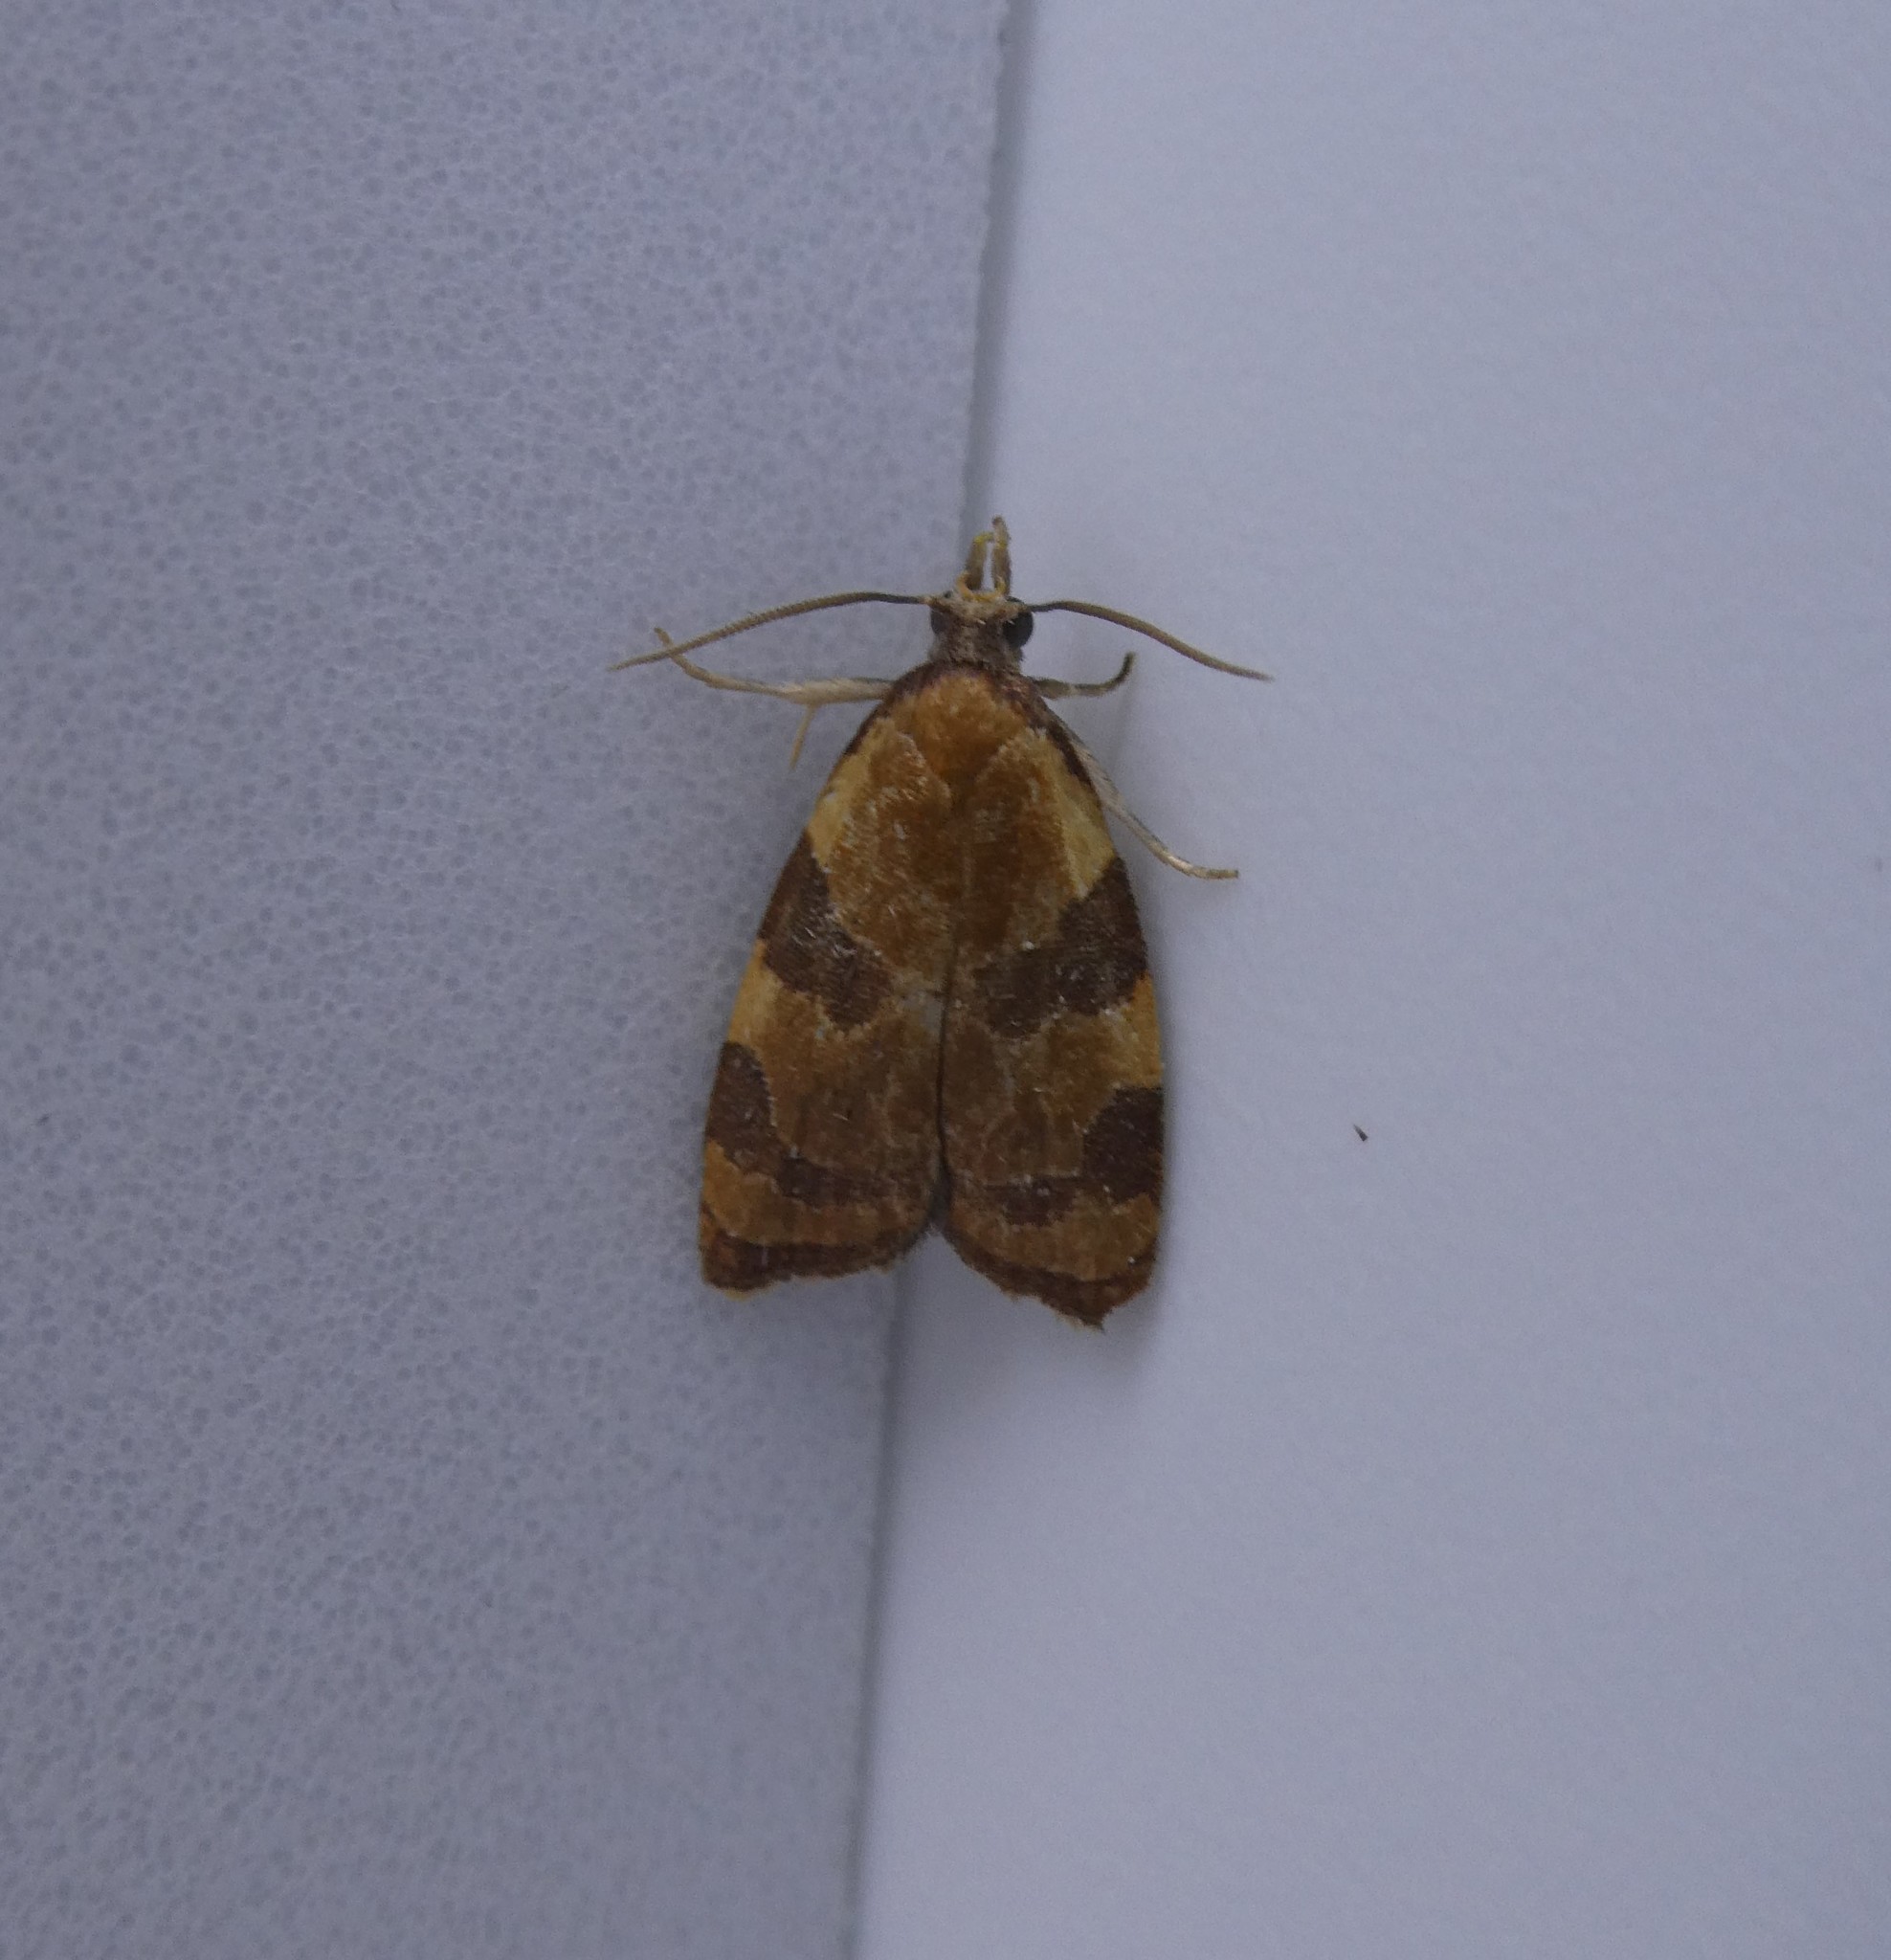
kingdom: Animalia
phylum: Arthropoda
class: Insecta
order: Lepidoptera
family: Tortricidae
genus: Cenopis
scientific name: Cenopis diluticostana
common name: Spring dead-leaf roller moth
